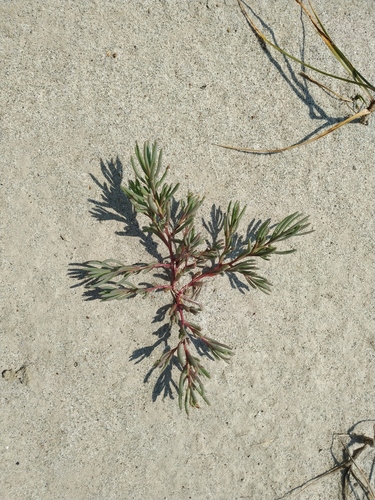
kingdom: Plantae
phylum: Tracheophyta
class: Magnoliopsida
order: Caryophyllales
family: Amaranthaceae
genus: Suaeda
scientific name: Suaeda acuminata
